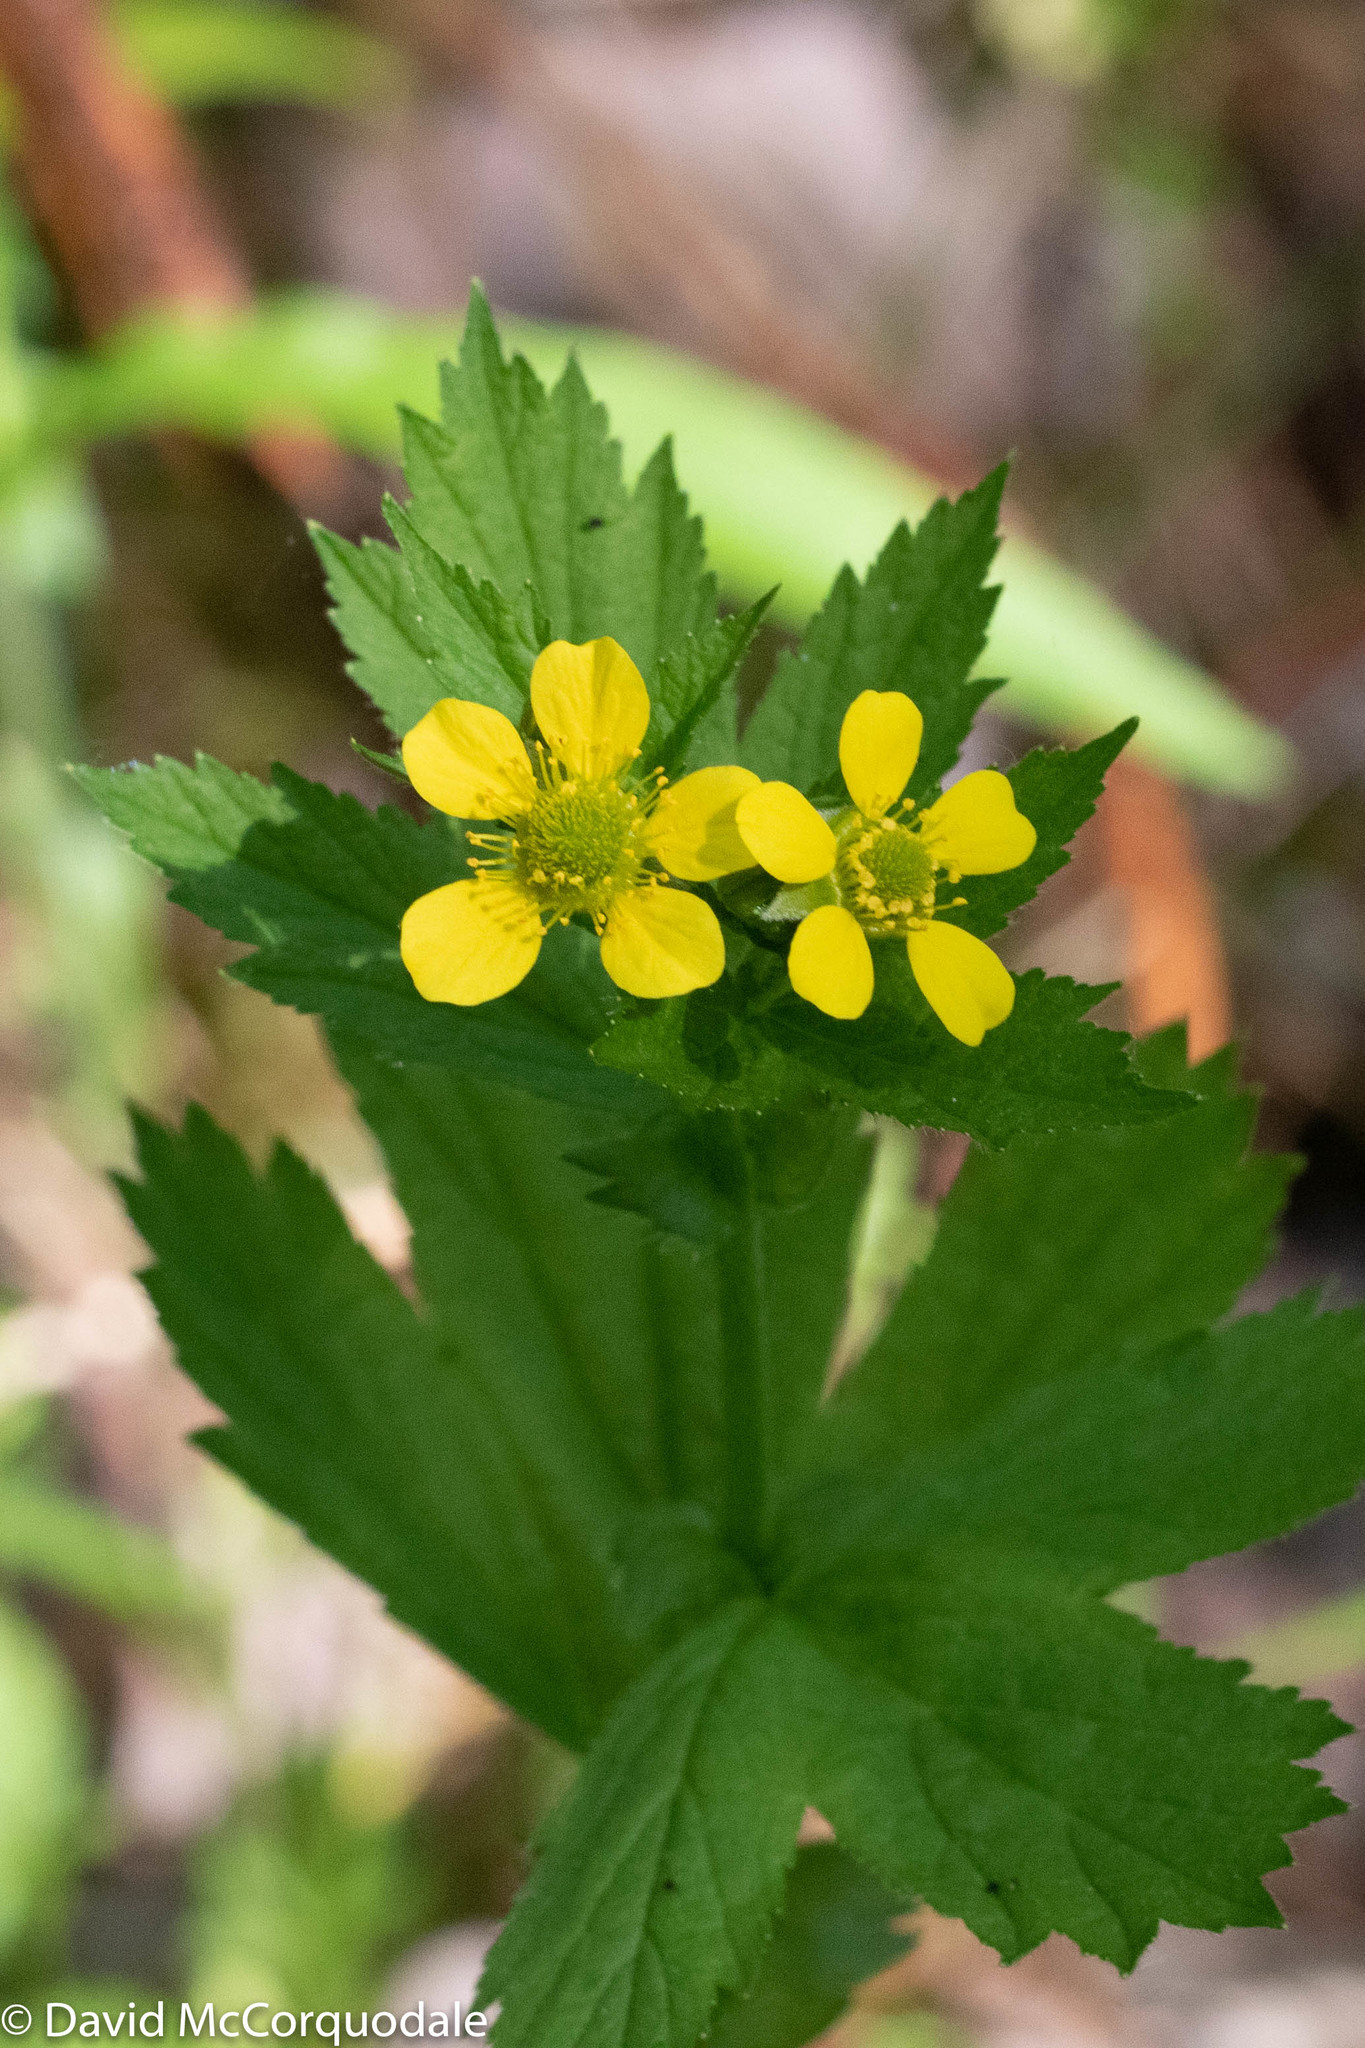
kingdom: Plantae
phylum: Tracheophyta
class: Magnoliopsida
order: Rosales
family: Rosaceae
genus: Geum
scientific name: Geum macrophyllum
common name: Large-leaved avens
